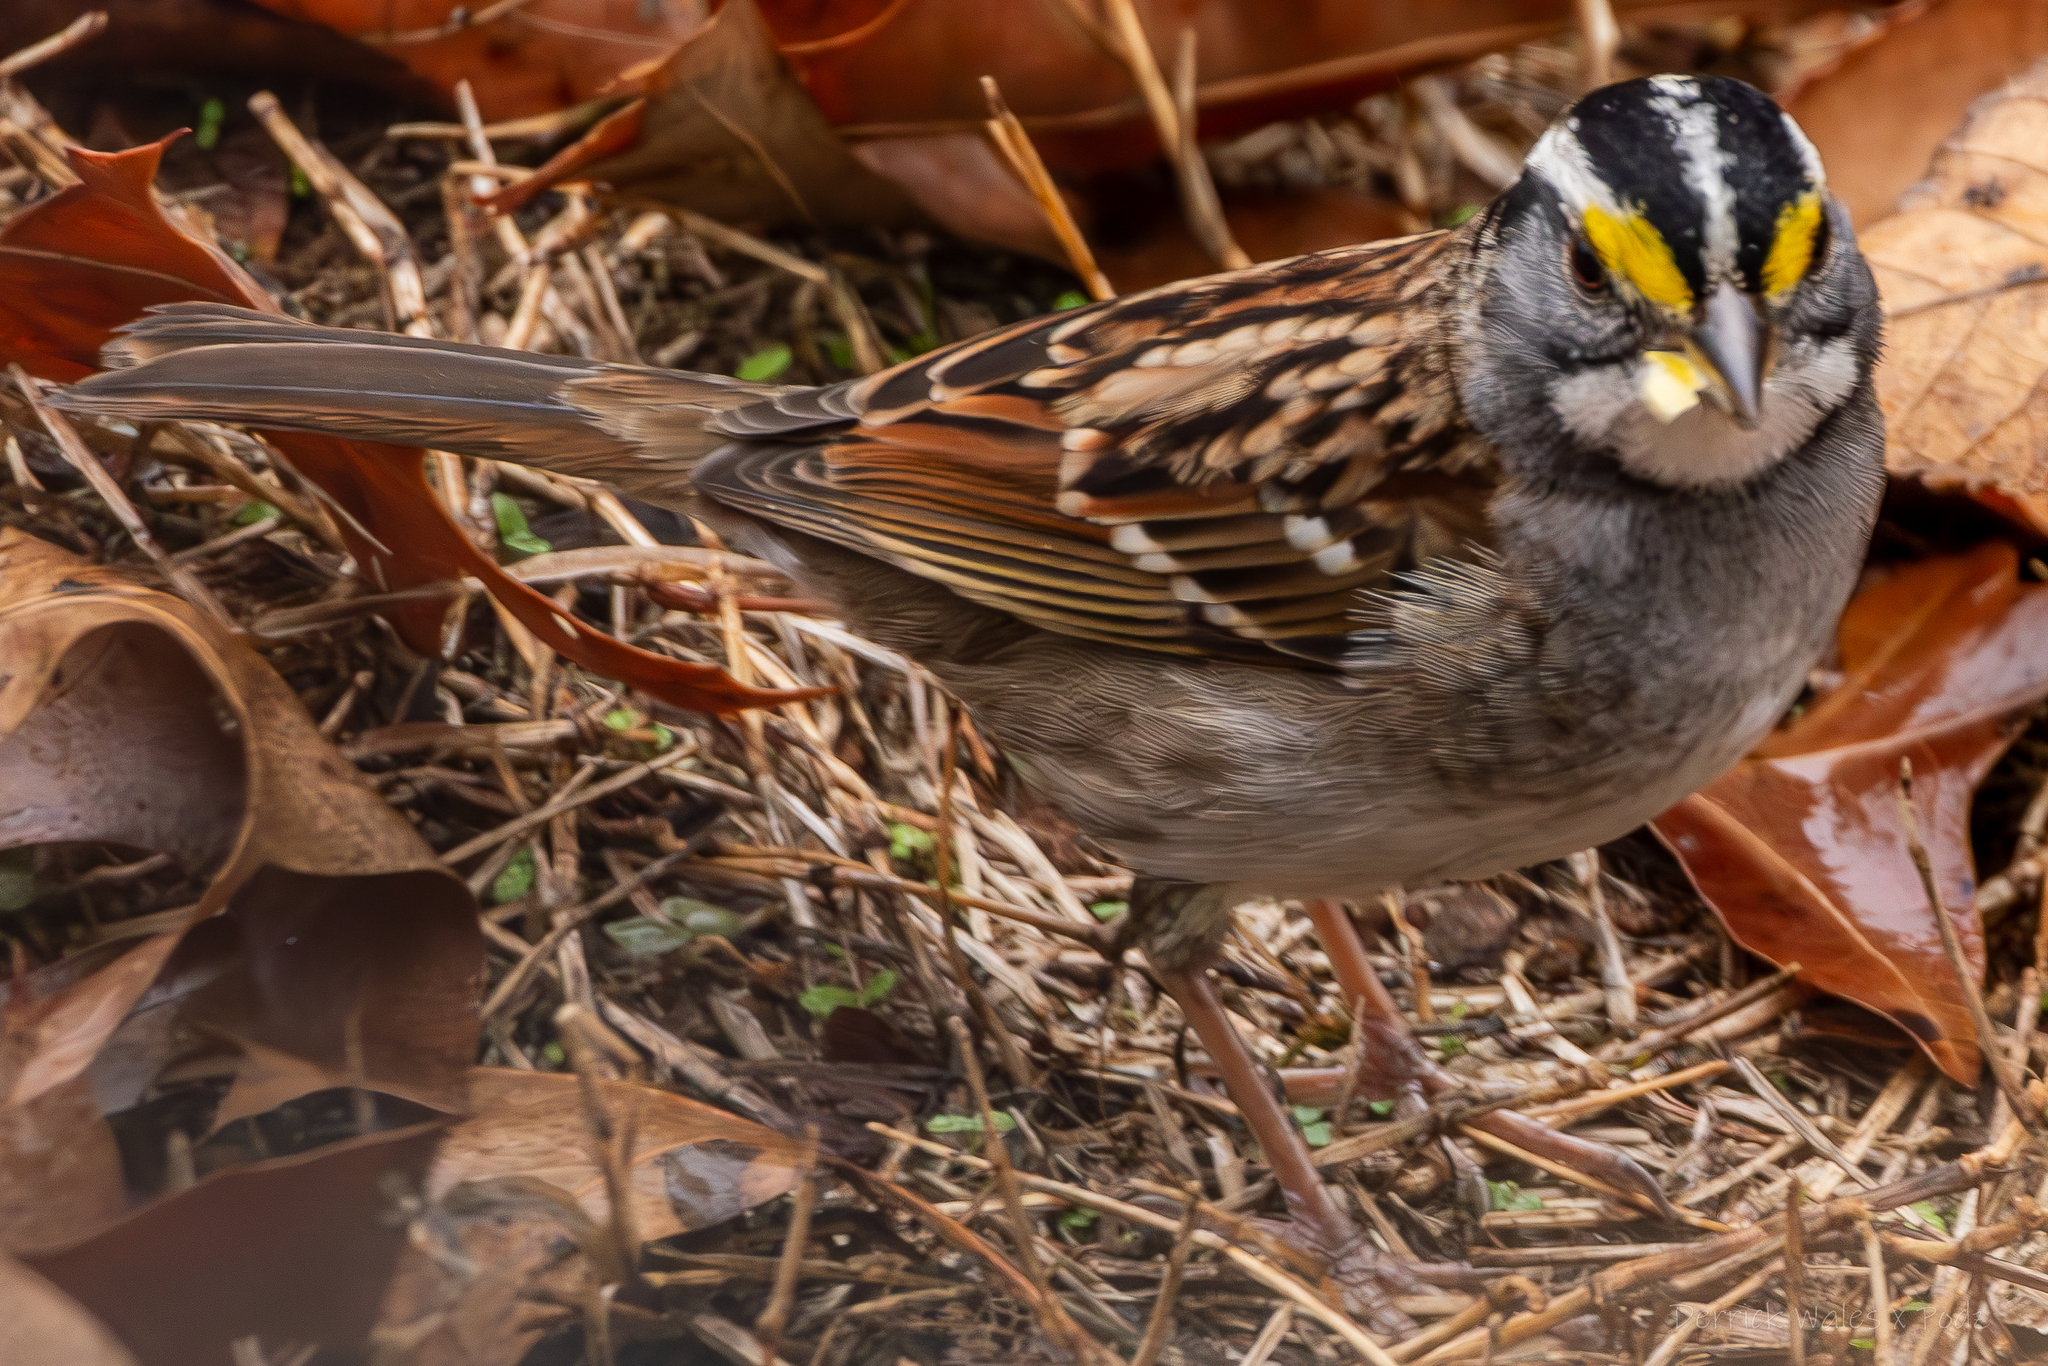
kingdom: Animalia
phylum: Chordata
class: Aves
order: Passeriformes
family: Passerellidae
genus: Zonotrichia
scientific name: Zonotrichia albicollis
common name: White-throated sparrow
